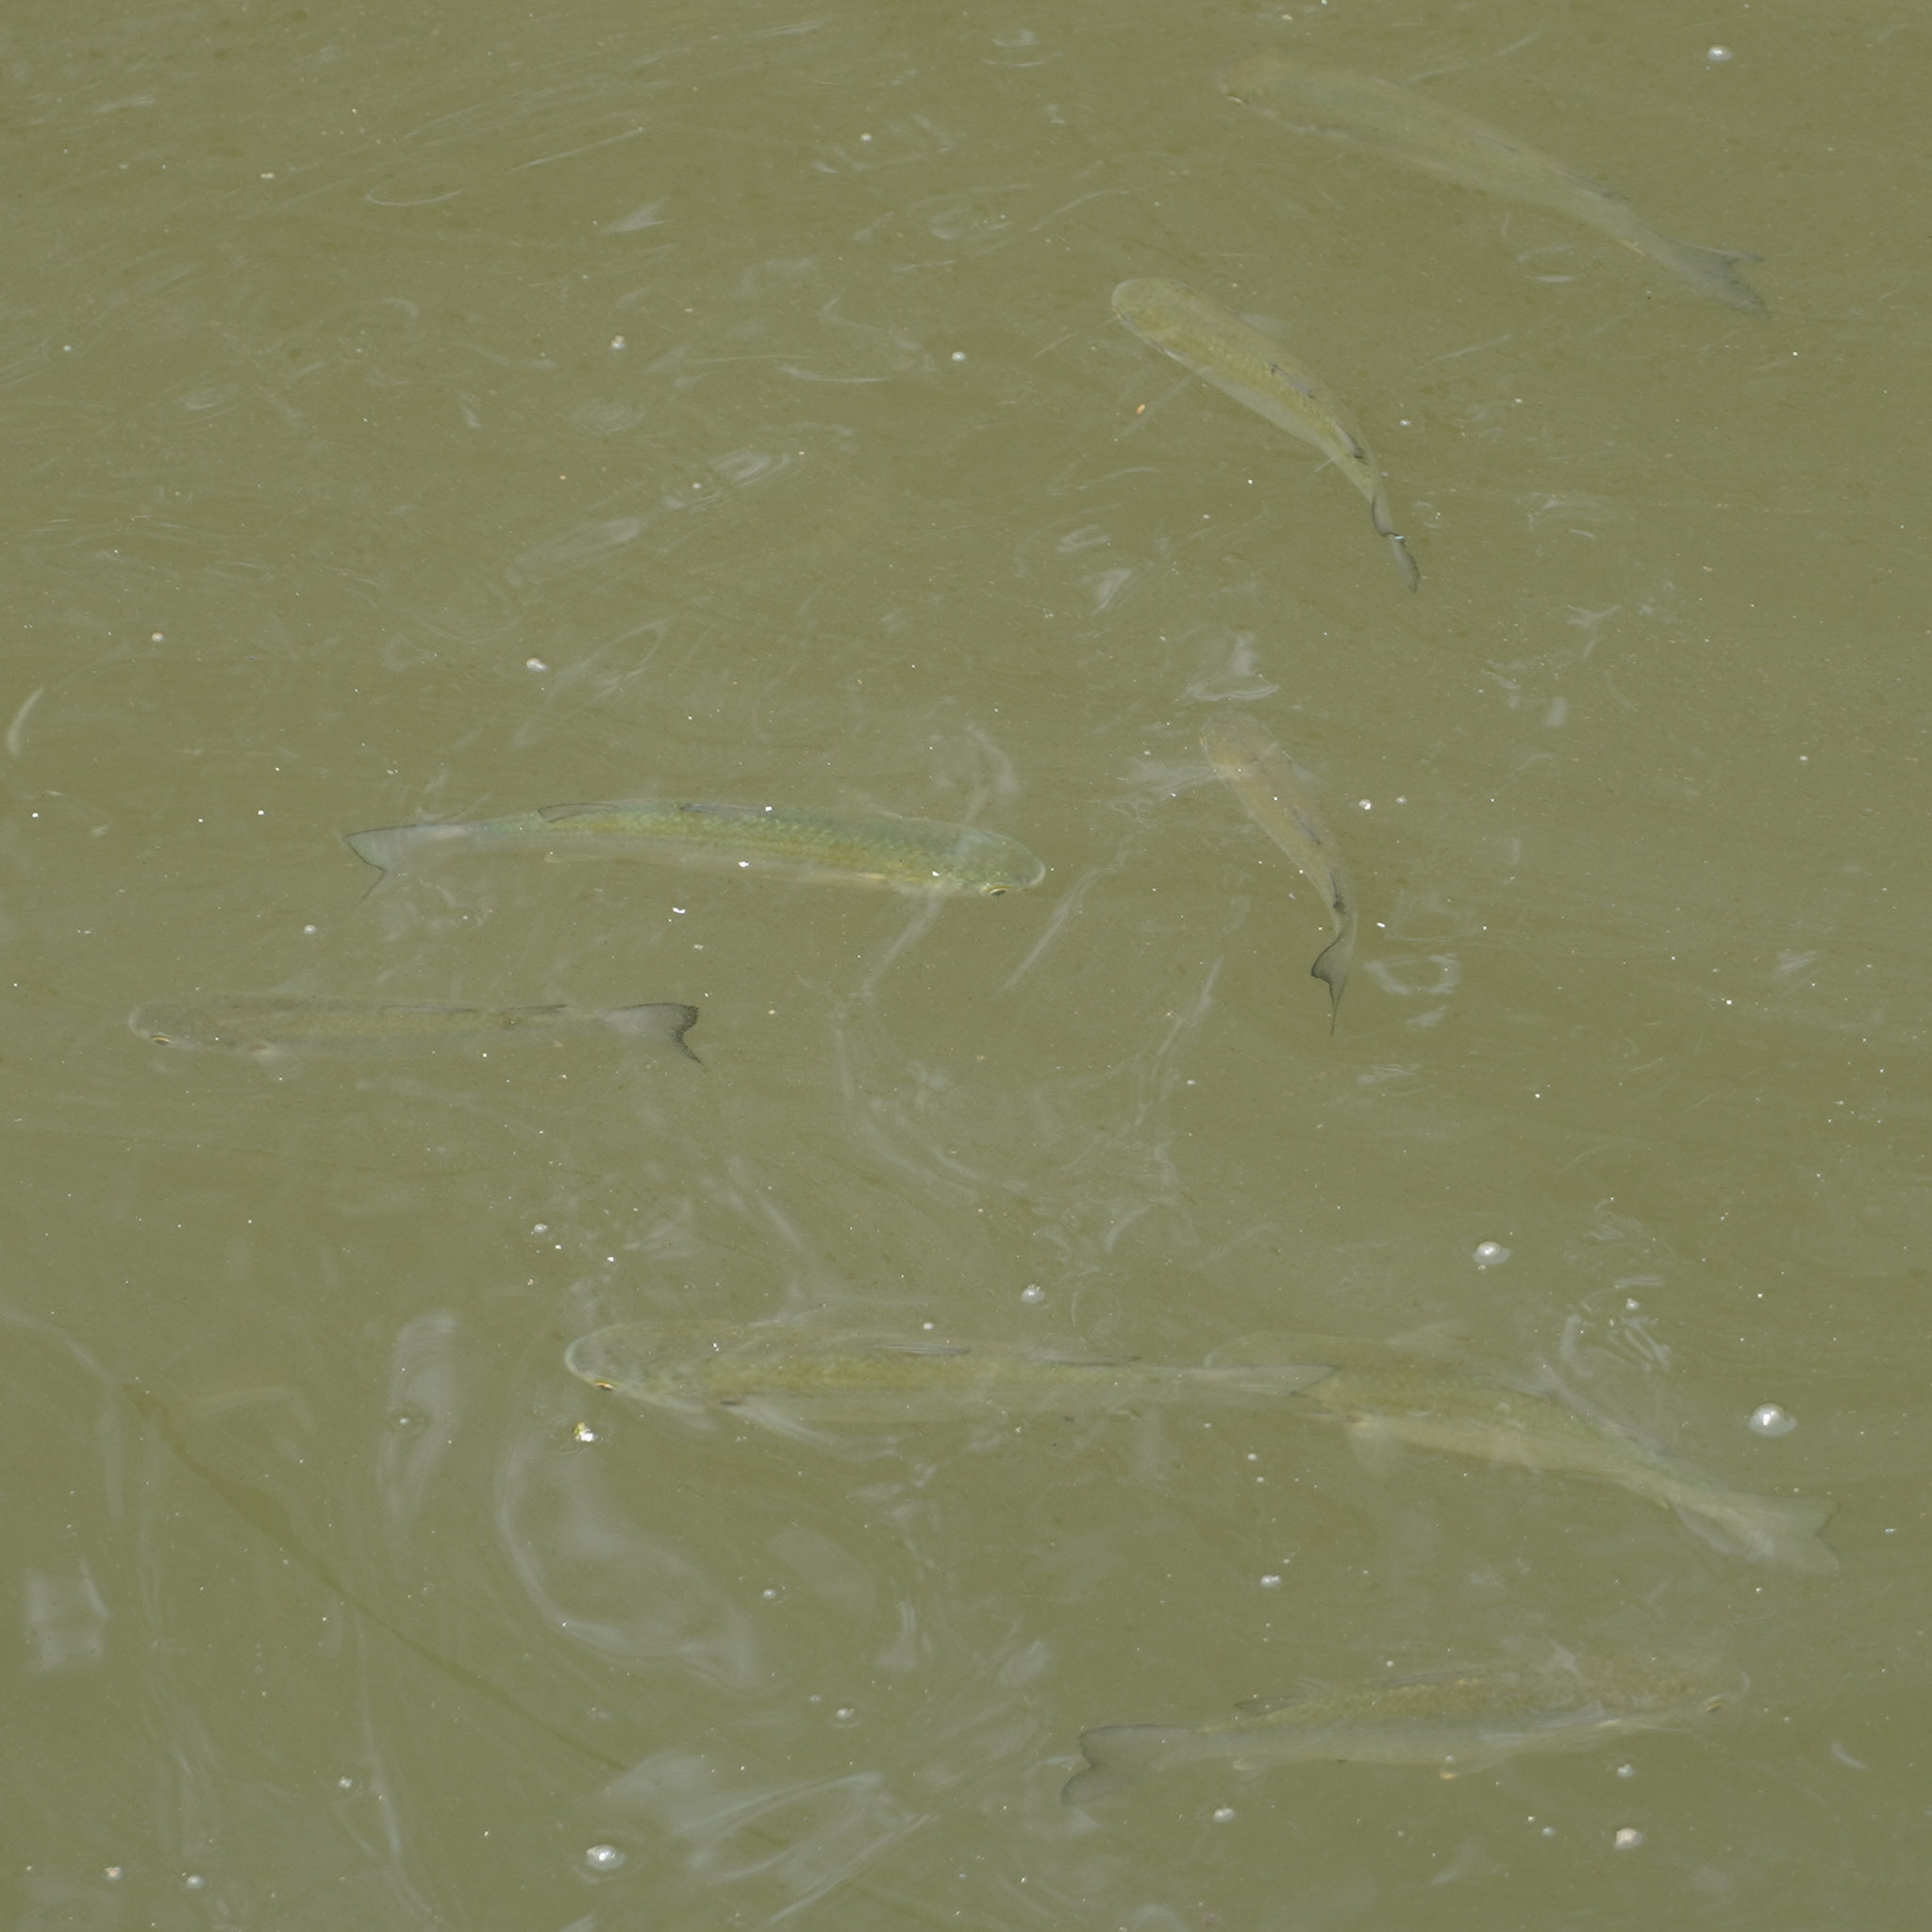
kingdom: Animalia
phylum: Chordata
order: Mugiliformes
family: Mugilidae
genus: Planiliza
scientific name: Planiliza subviridis
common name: Greenback mullet
